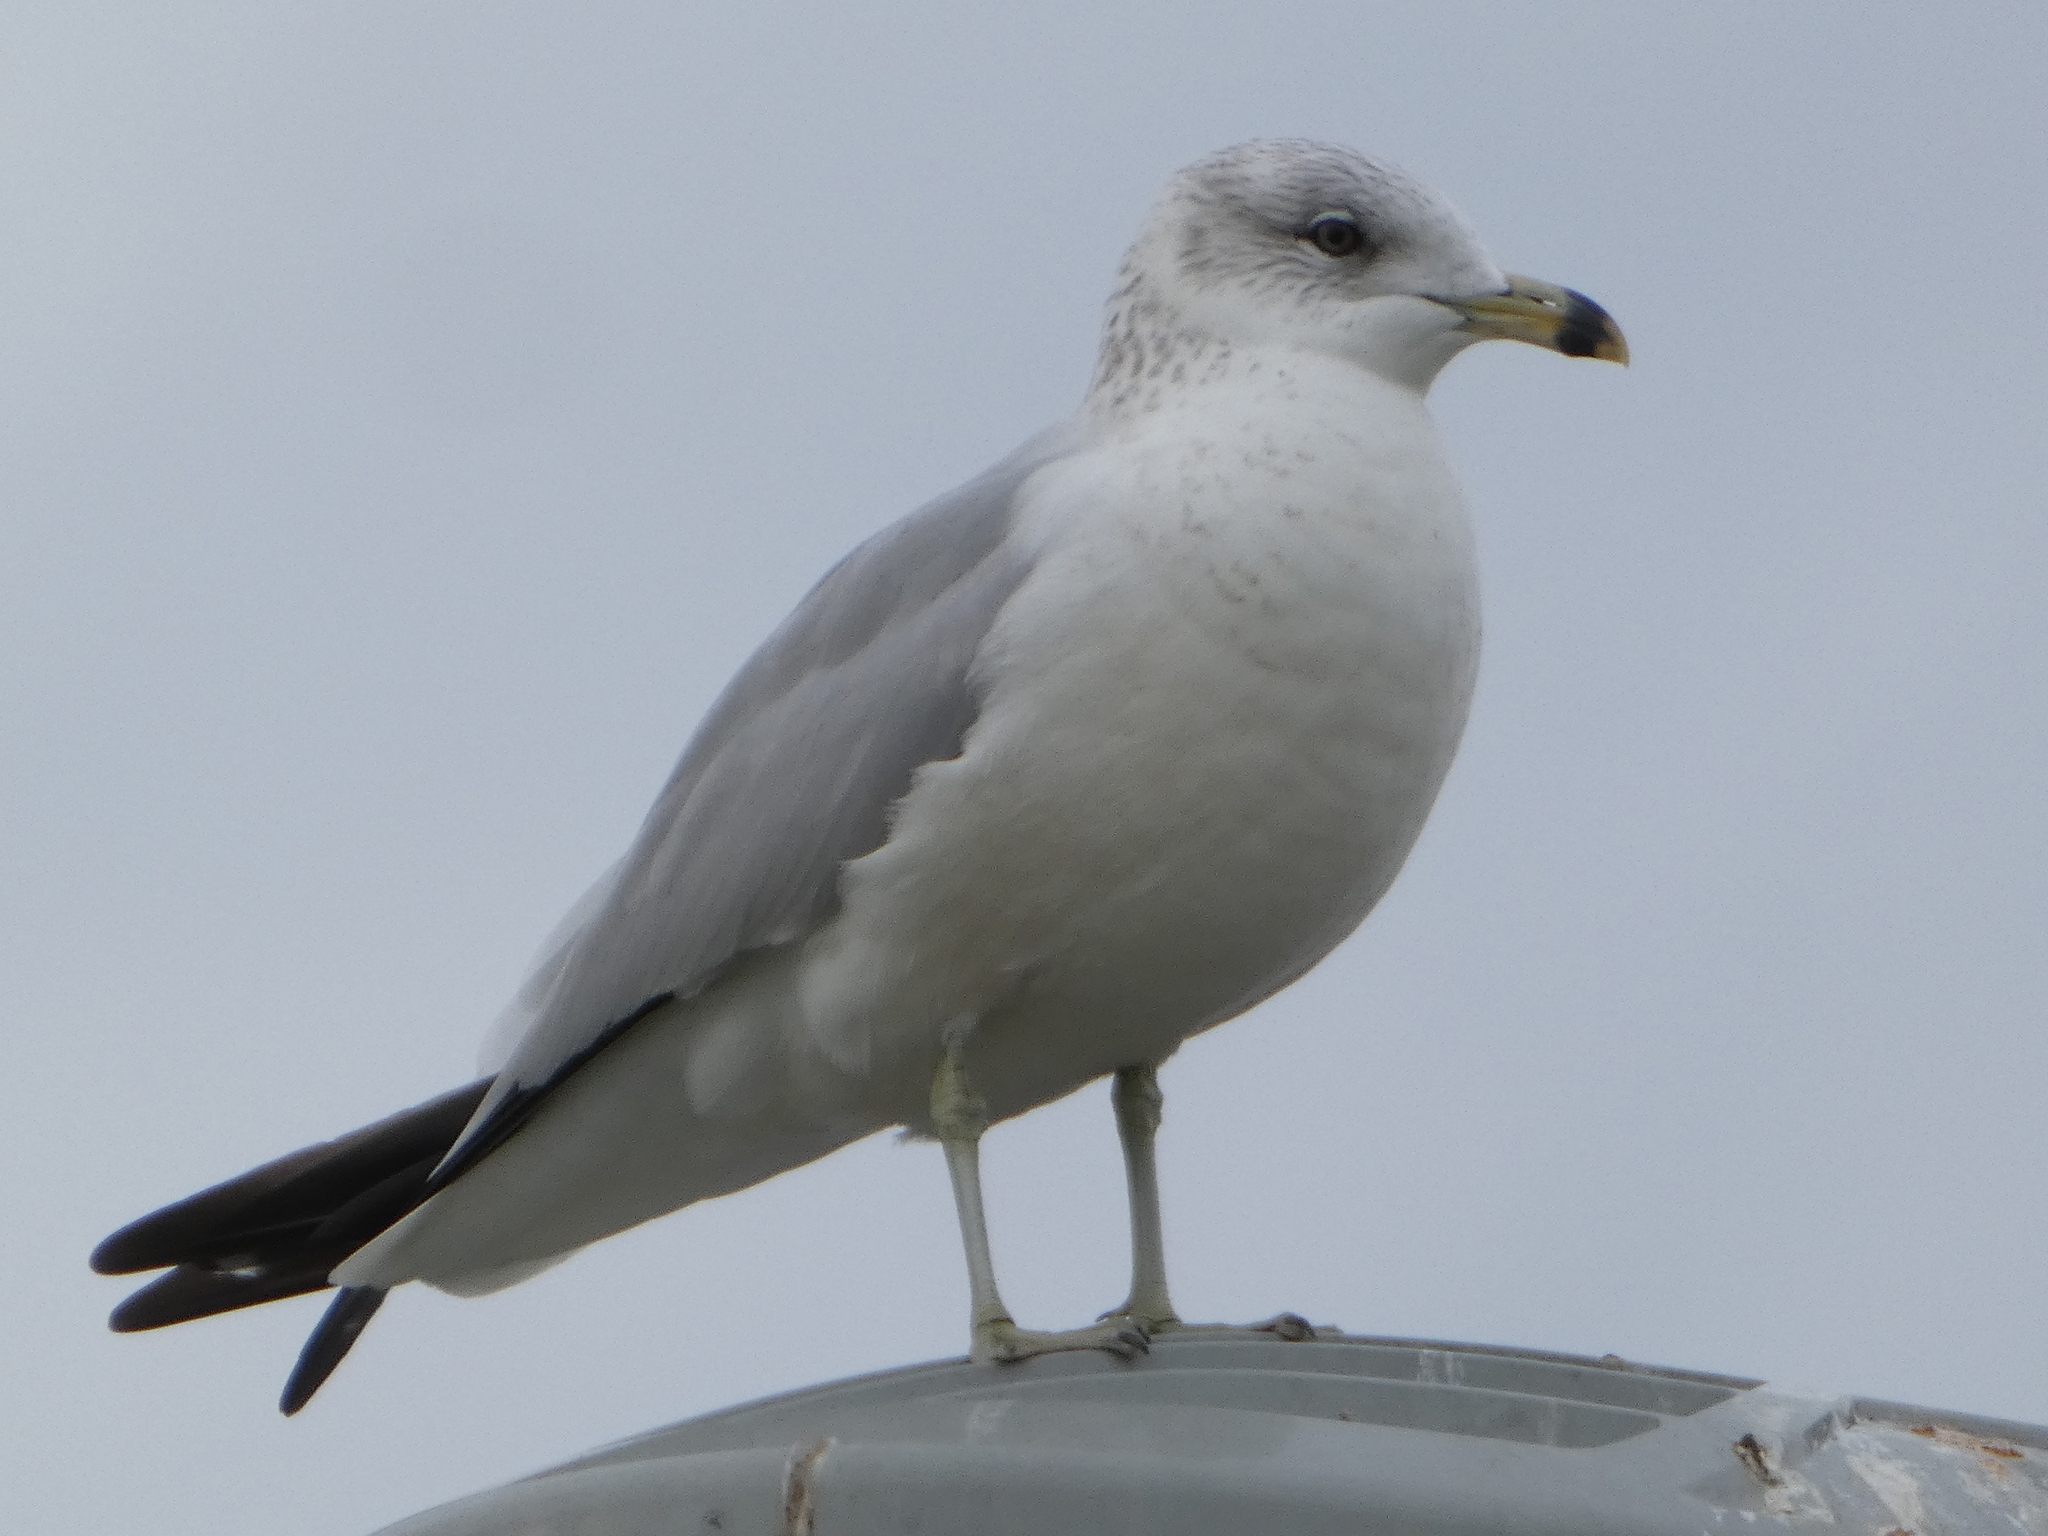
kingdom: Animalia
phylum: Chordata
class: Aves
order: Charadriiformes
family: Laridae
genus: Larus
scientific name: Larus delawarensis
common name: Ring-billed gull
